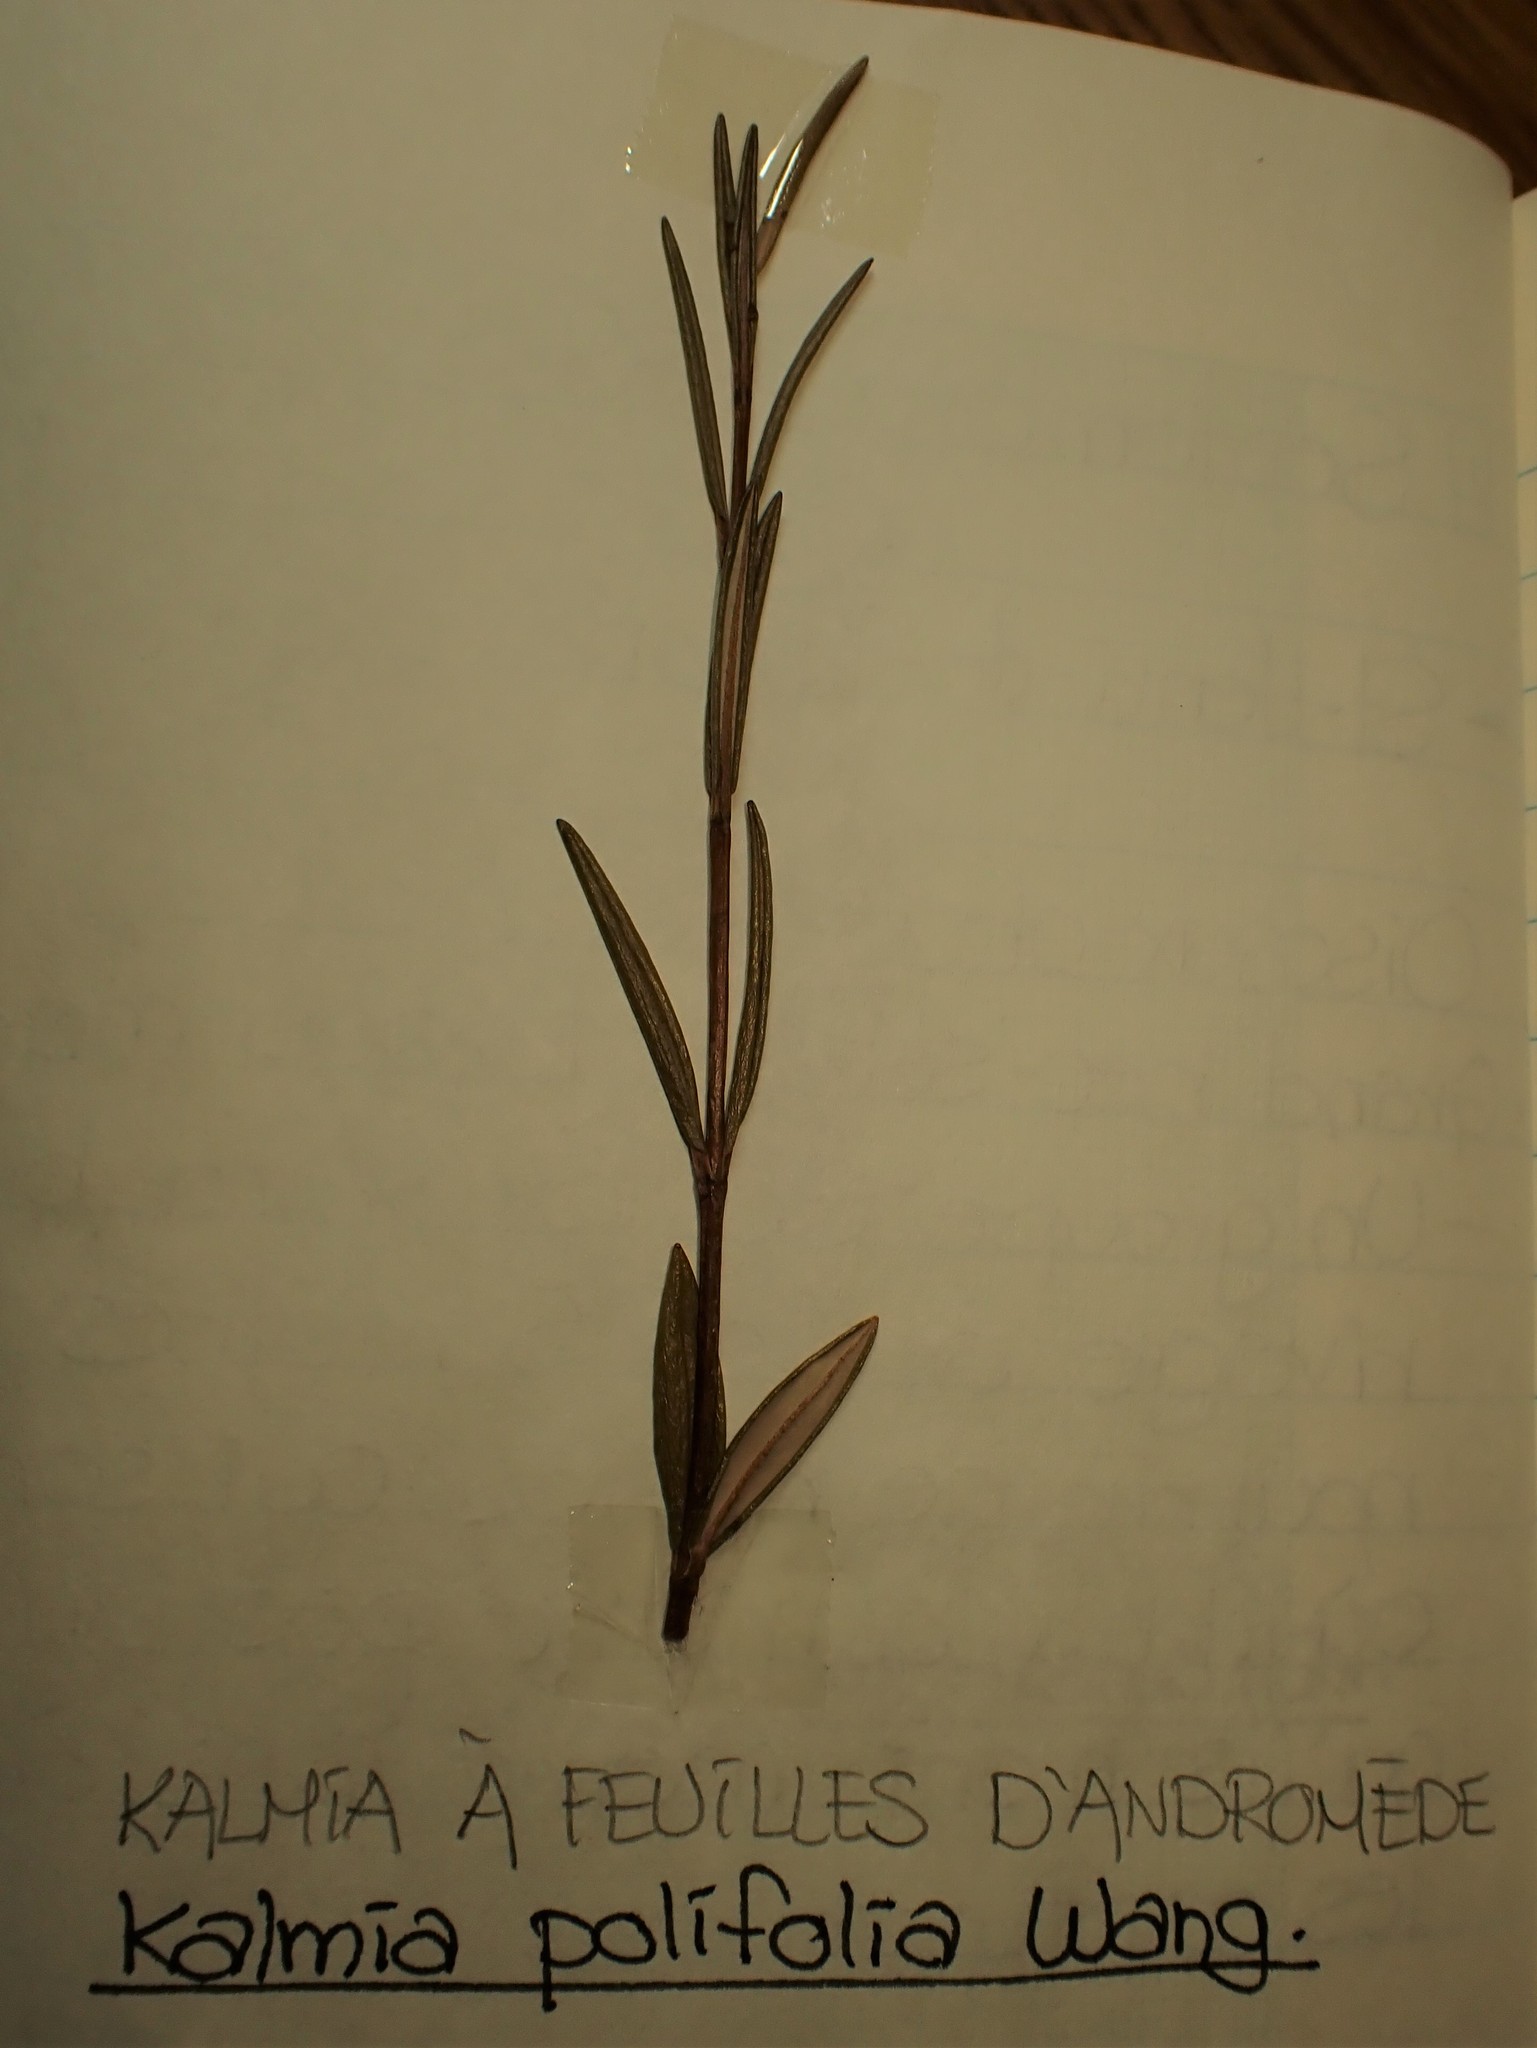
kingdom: Plantae
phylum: Tracheophyta
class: Magnoliopsida
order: Ericales
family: Ericaceae
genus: Kalmia
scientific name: Kalmia polifolia
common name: Bog-laurel
